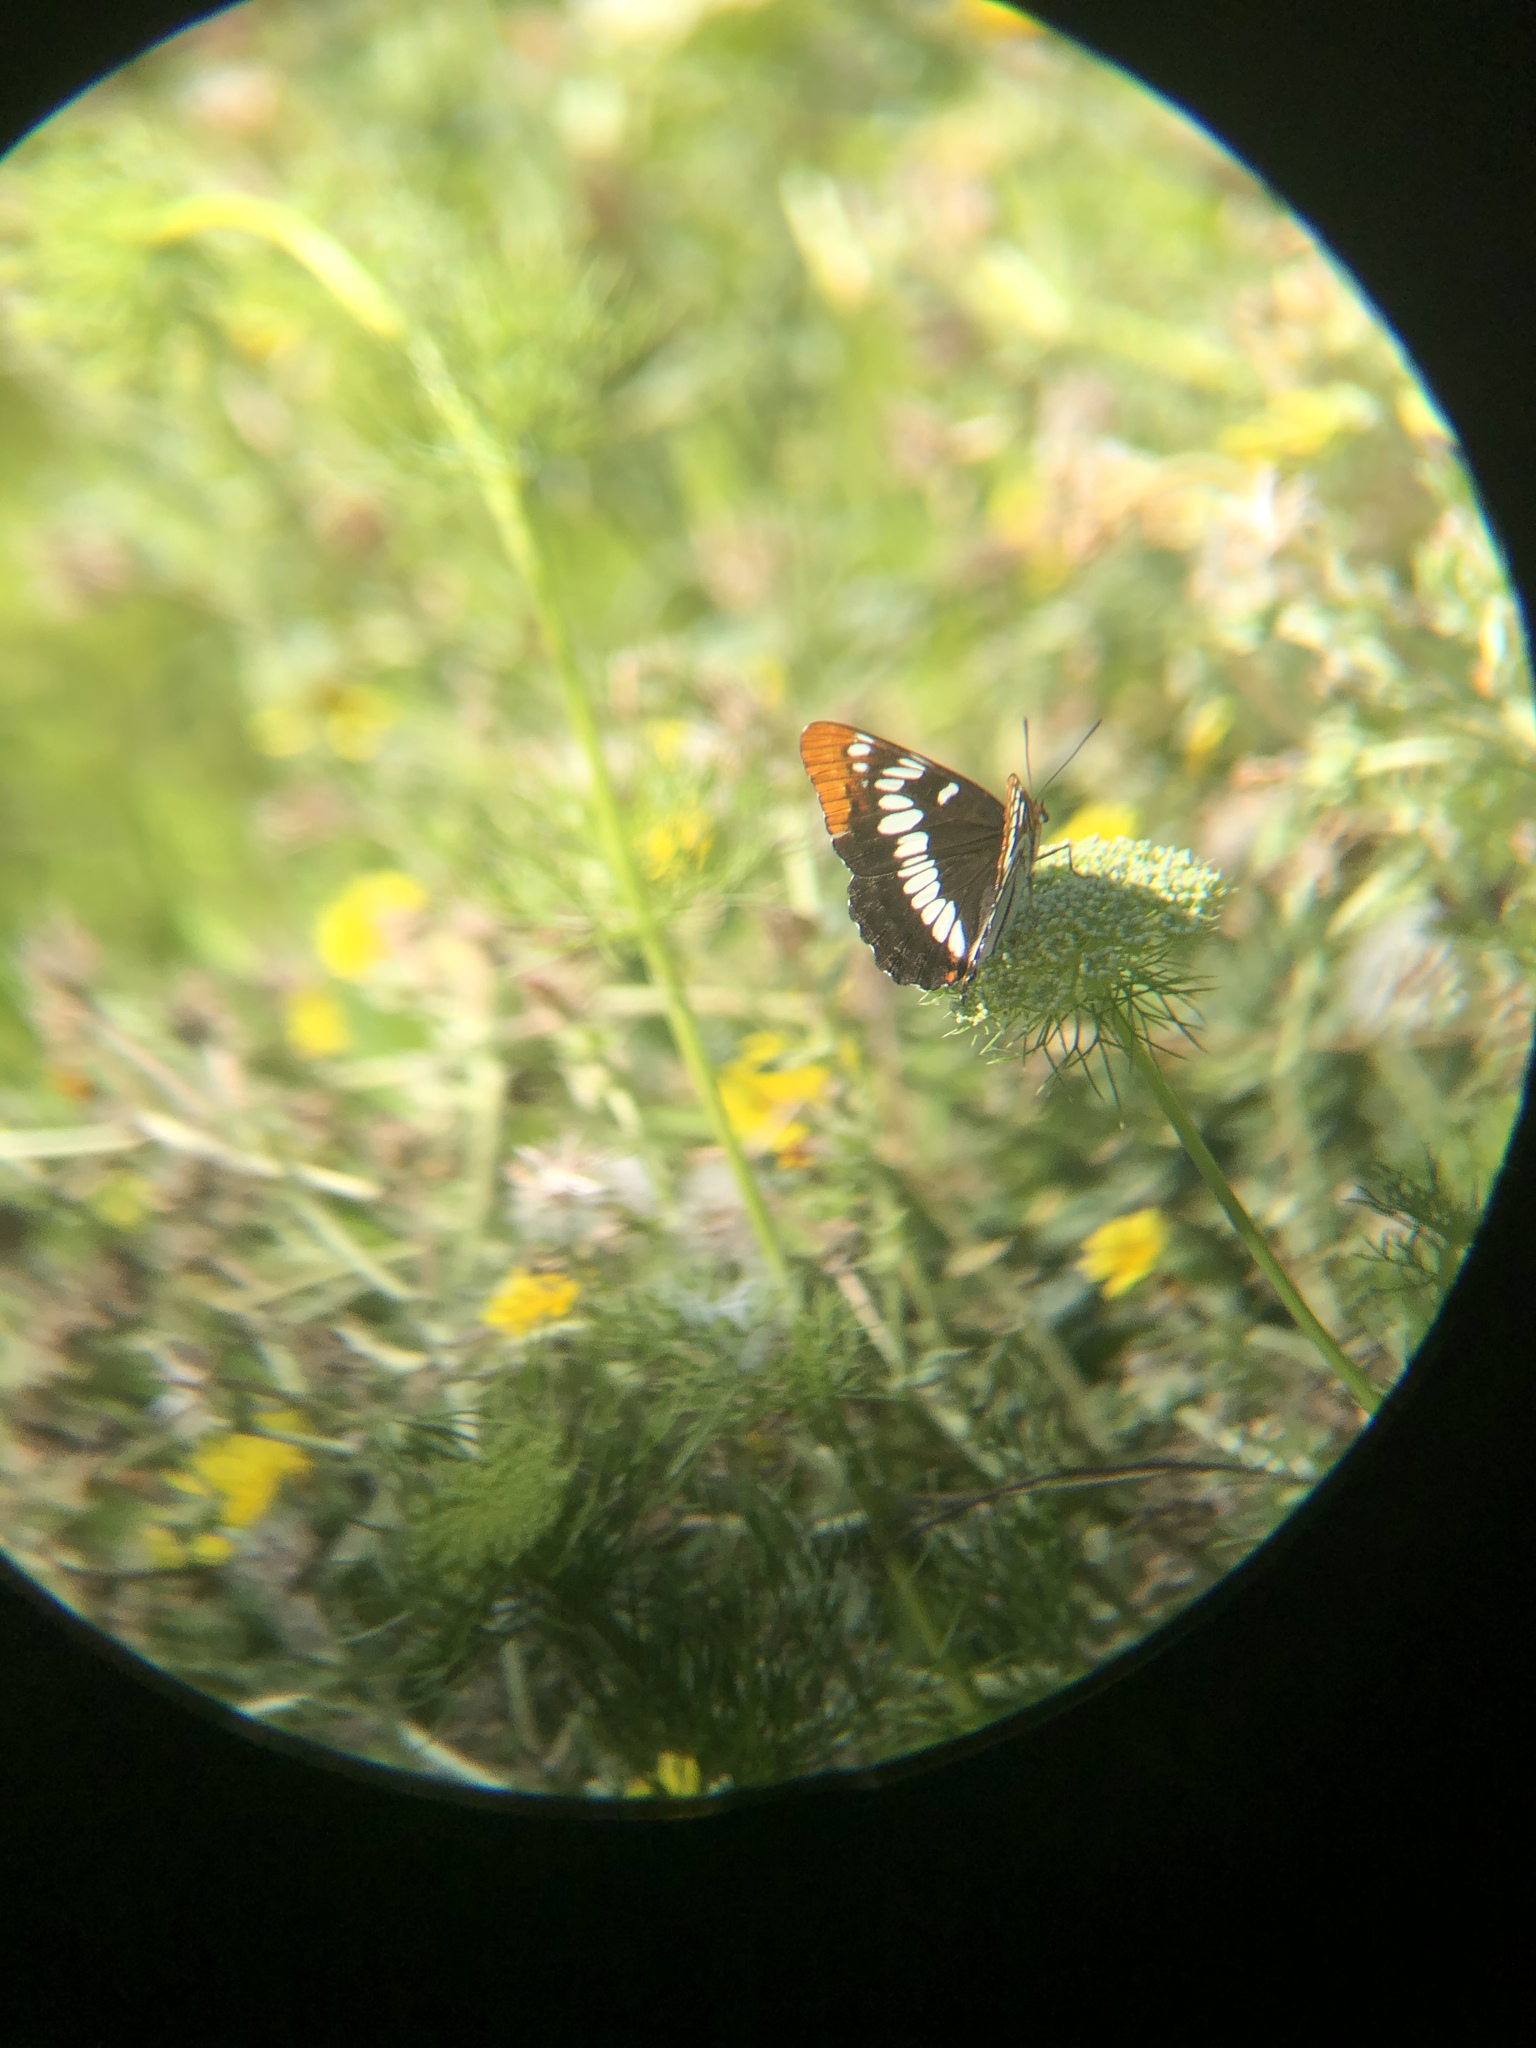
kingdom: Animalia
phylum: Arthropoda
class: Insecta
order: Lepidoptera
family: Nymphalidae
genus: Limenitis
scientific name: Limenitis lorquini
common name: Lorquin's admiral
